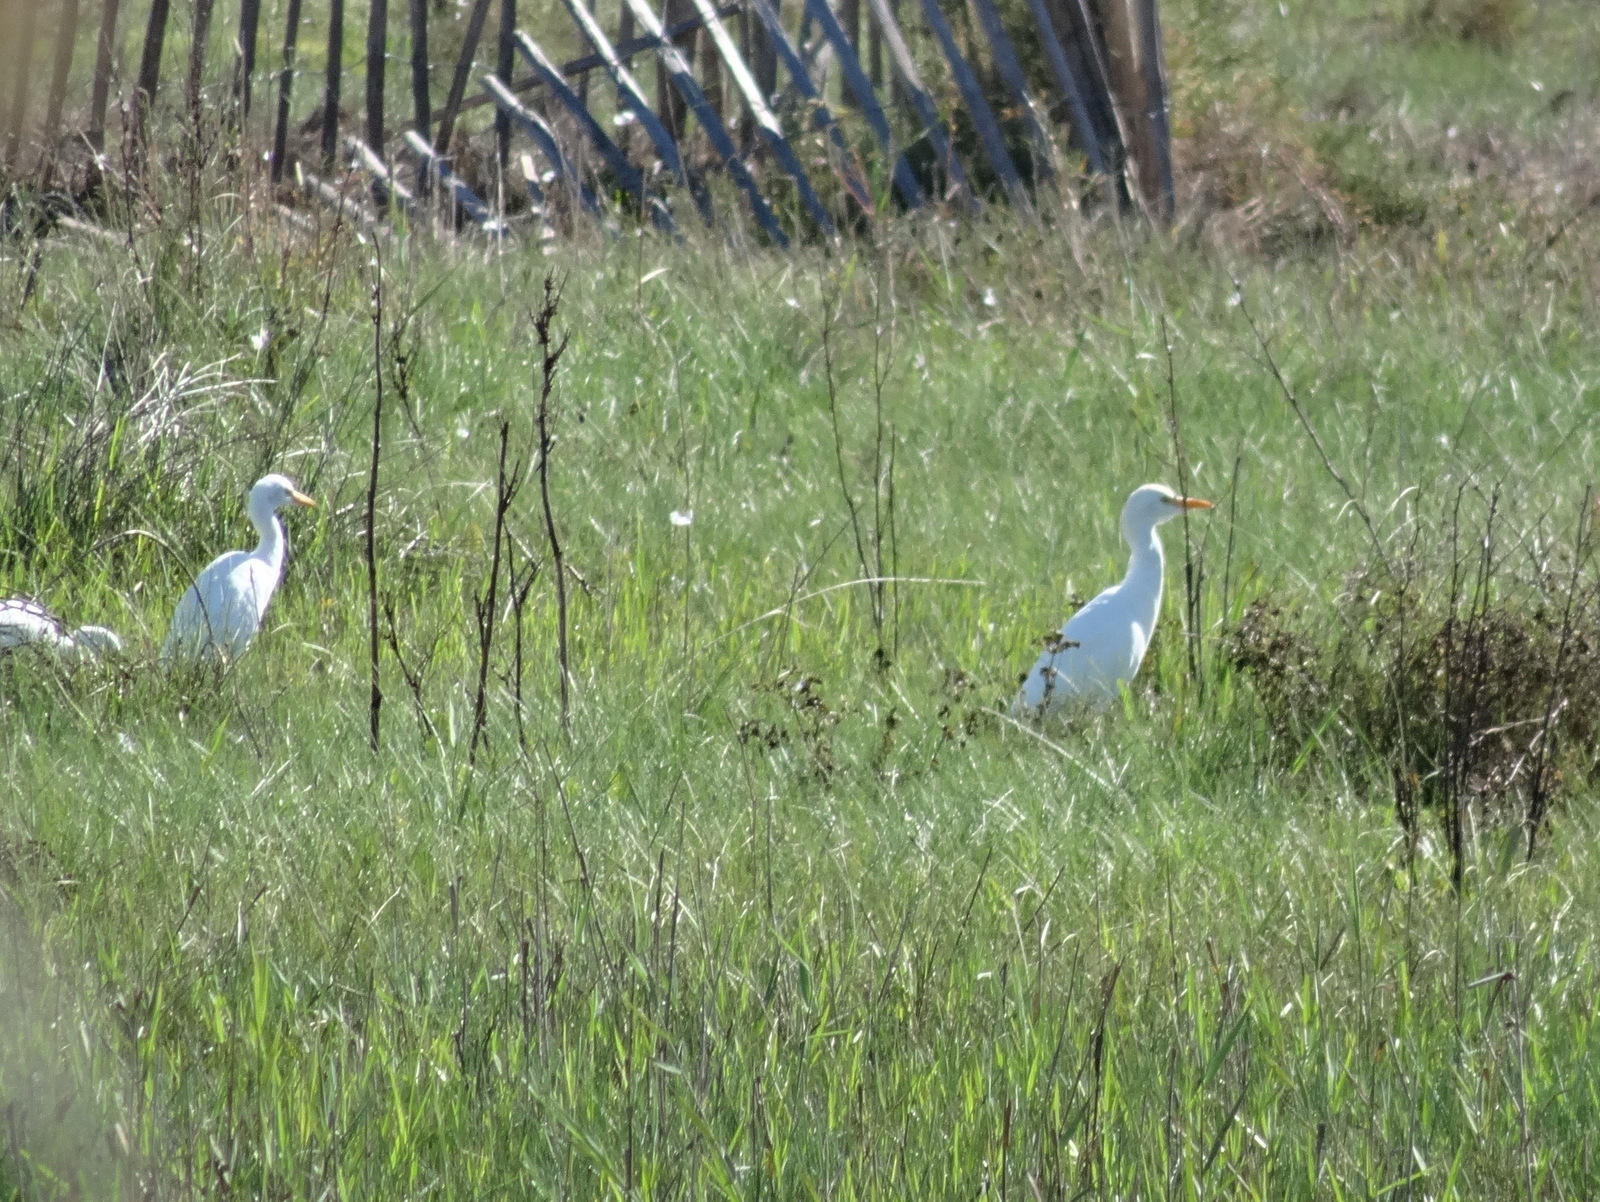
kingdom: Animalia
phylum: Chordata
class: Aves
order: Pelecaniformes
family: Ardeidae
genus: Bubulcus
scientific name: Bubulcus ibis
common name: Cattle egret
